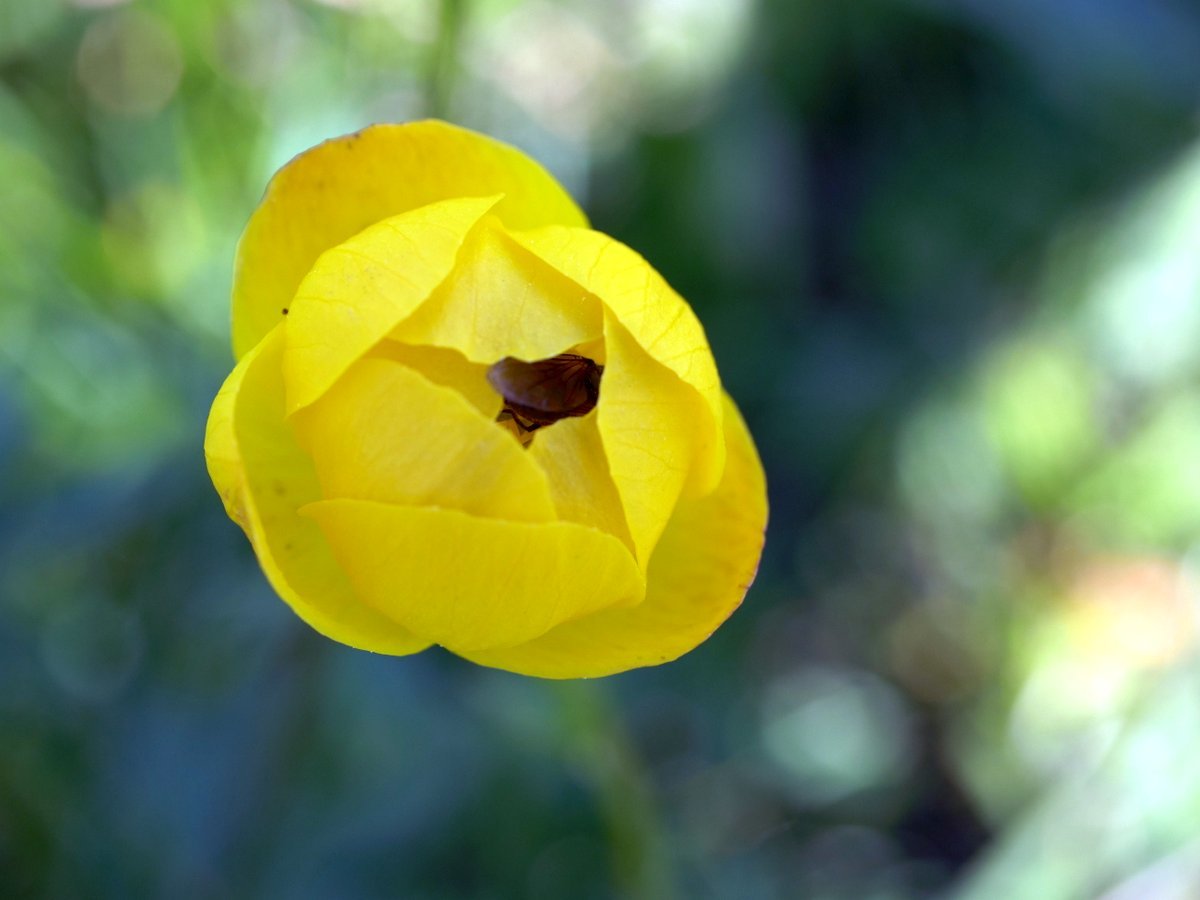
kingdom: Plantae
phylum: Tracheophyta
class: Magnoliopsida
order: Ranunculales
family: Ranunculaceae
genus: Trollius
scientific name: Trollius europaeus
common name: European globeflower
